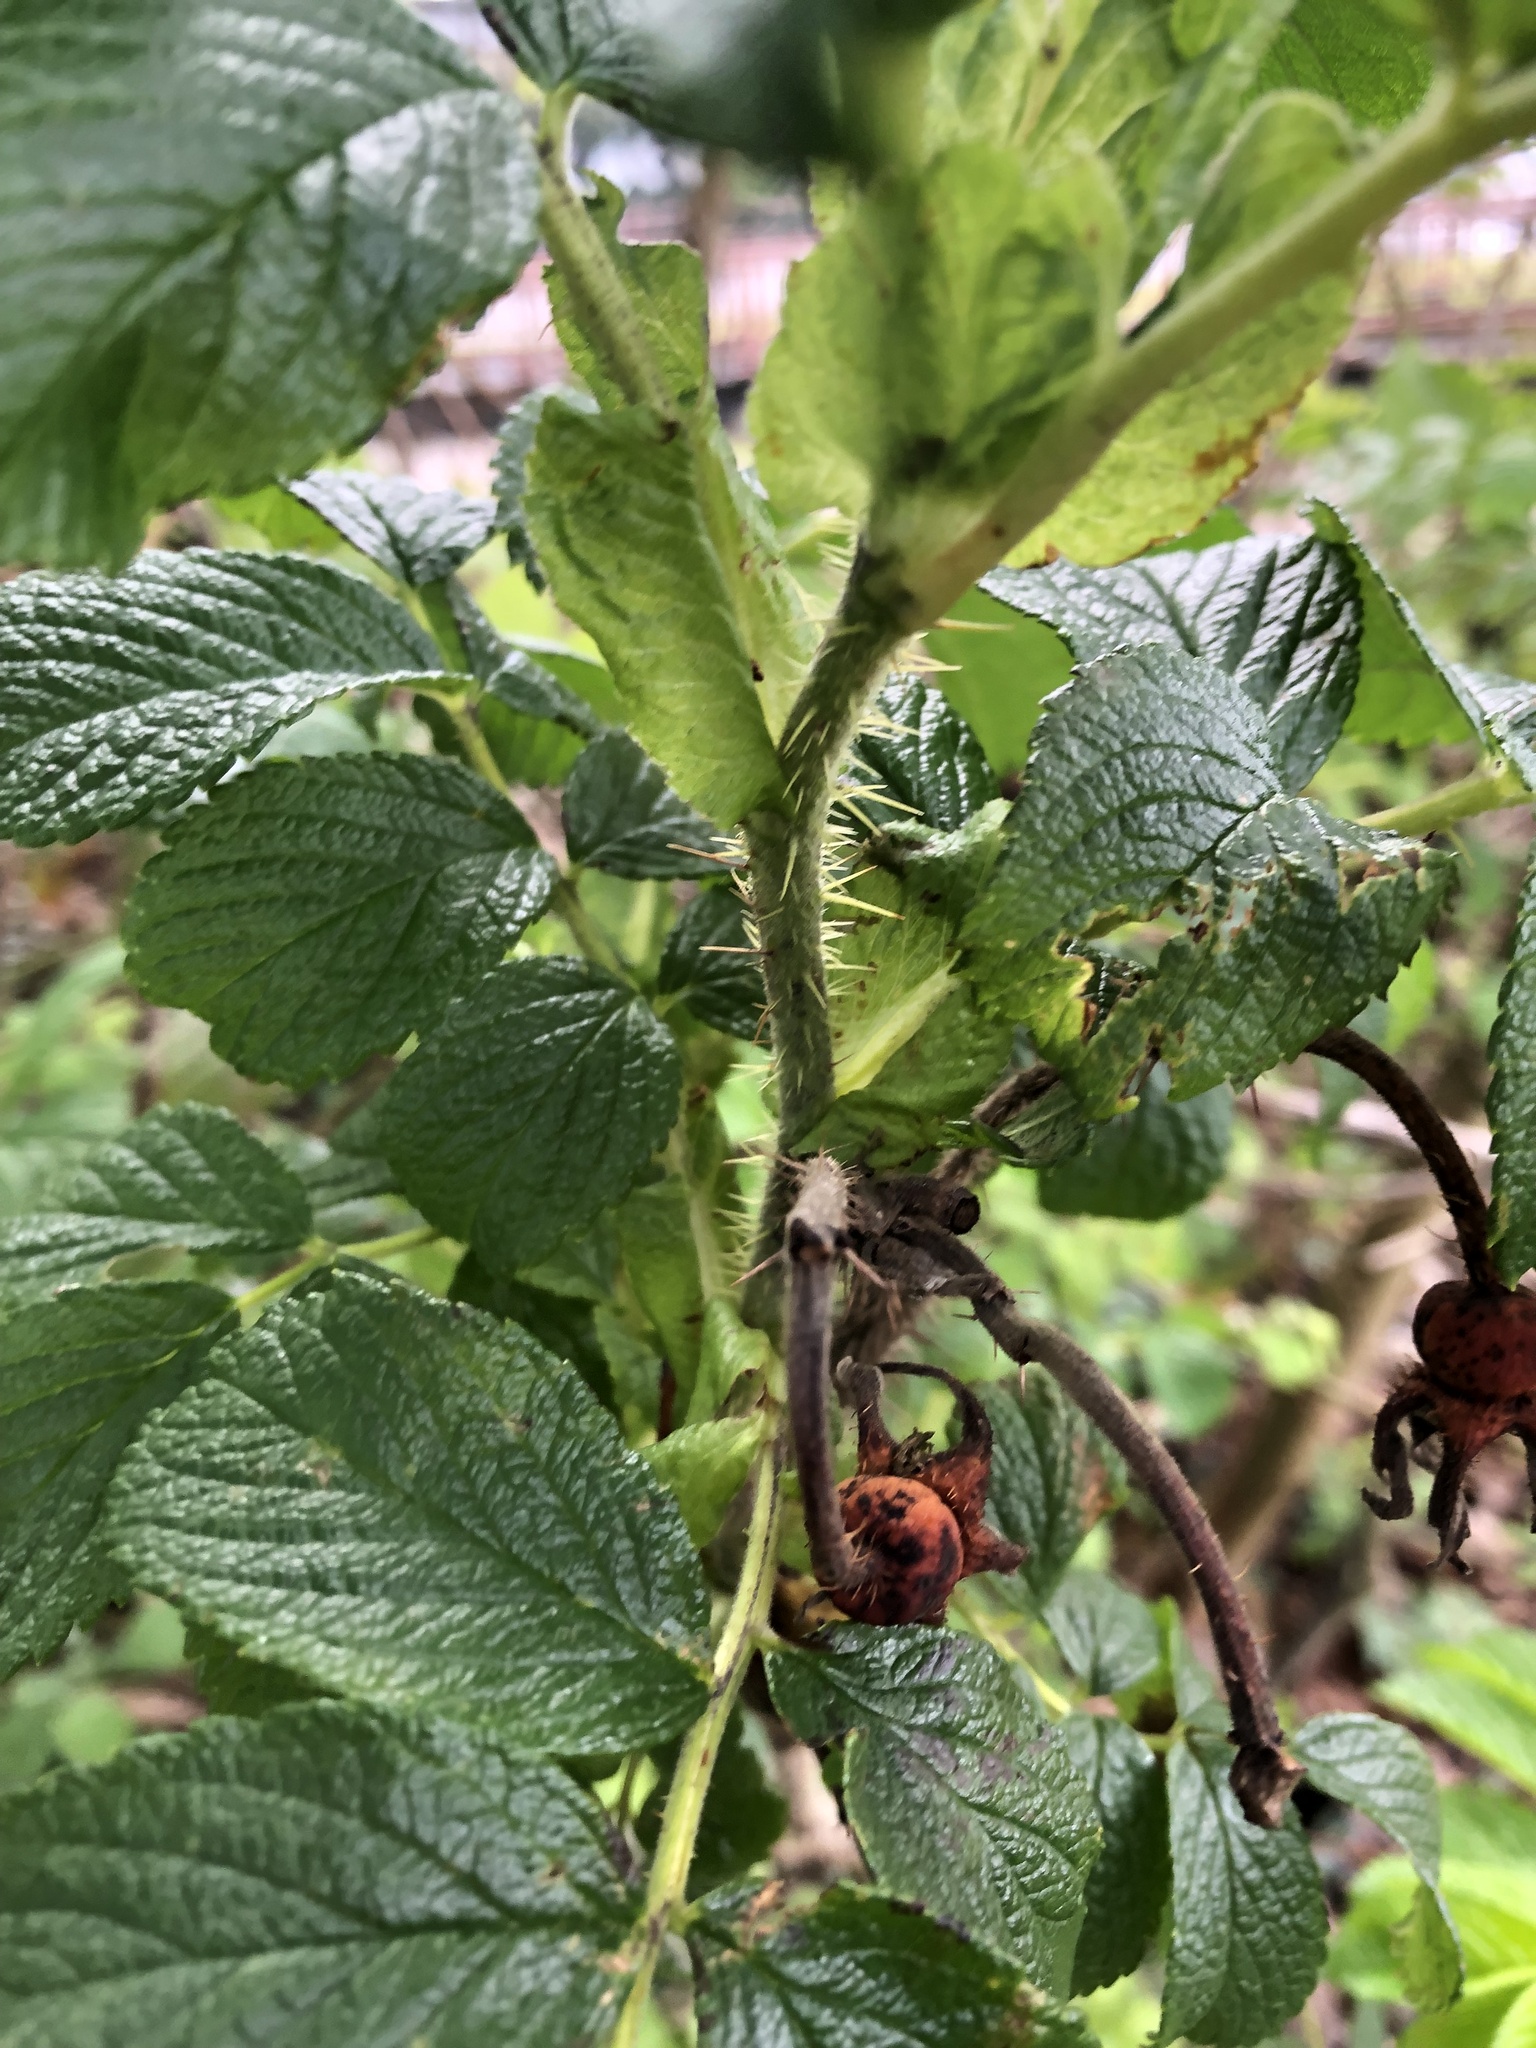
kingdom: Plantae
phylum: Tracheophyta
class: Magnoliopsida
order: Rosales
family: Rosaceae
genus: Rosa
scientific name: Rosa rugosa
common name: Japanese rose
